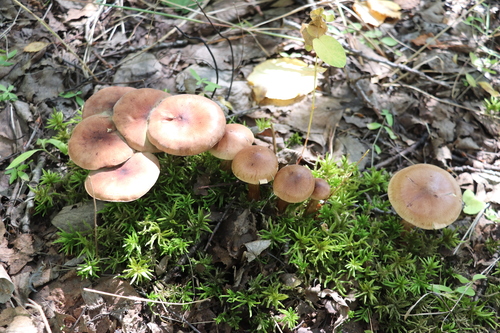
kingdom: Fungi
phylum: Basidiomycota
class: Agaricomycetes
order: Agaricales
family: Tricholomataceae
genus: Tricholoma
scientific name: Tricholoma fulvum
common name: Birch knight
